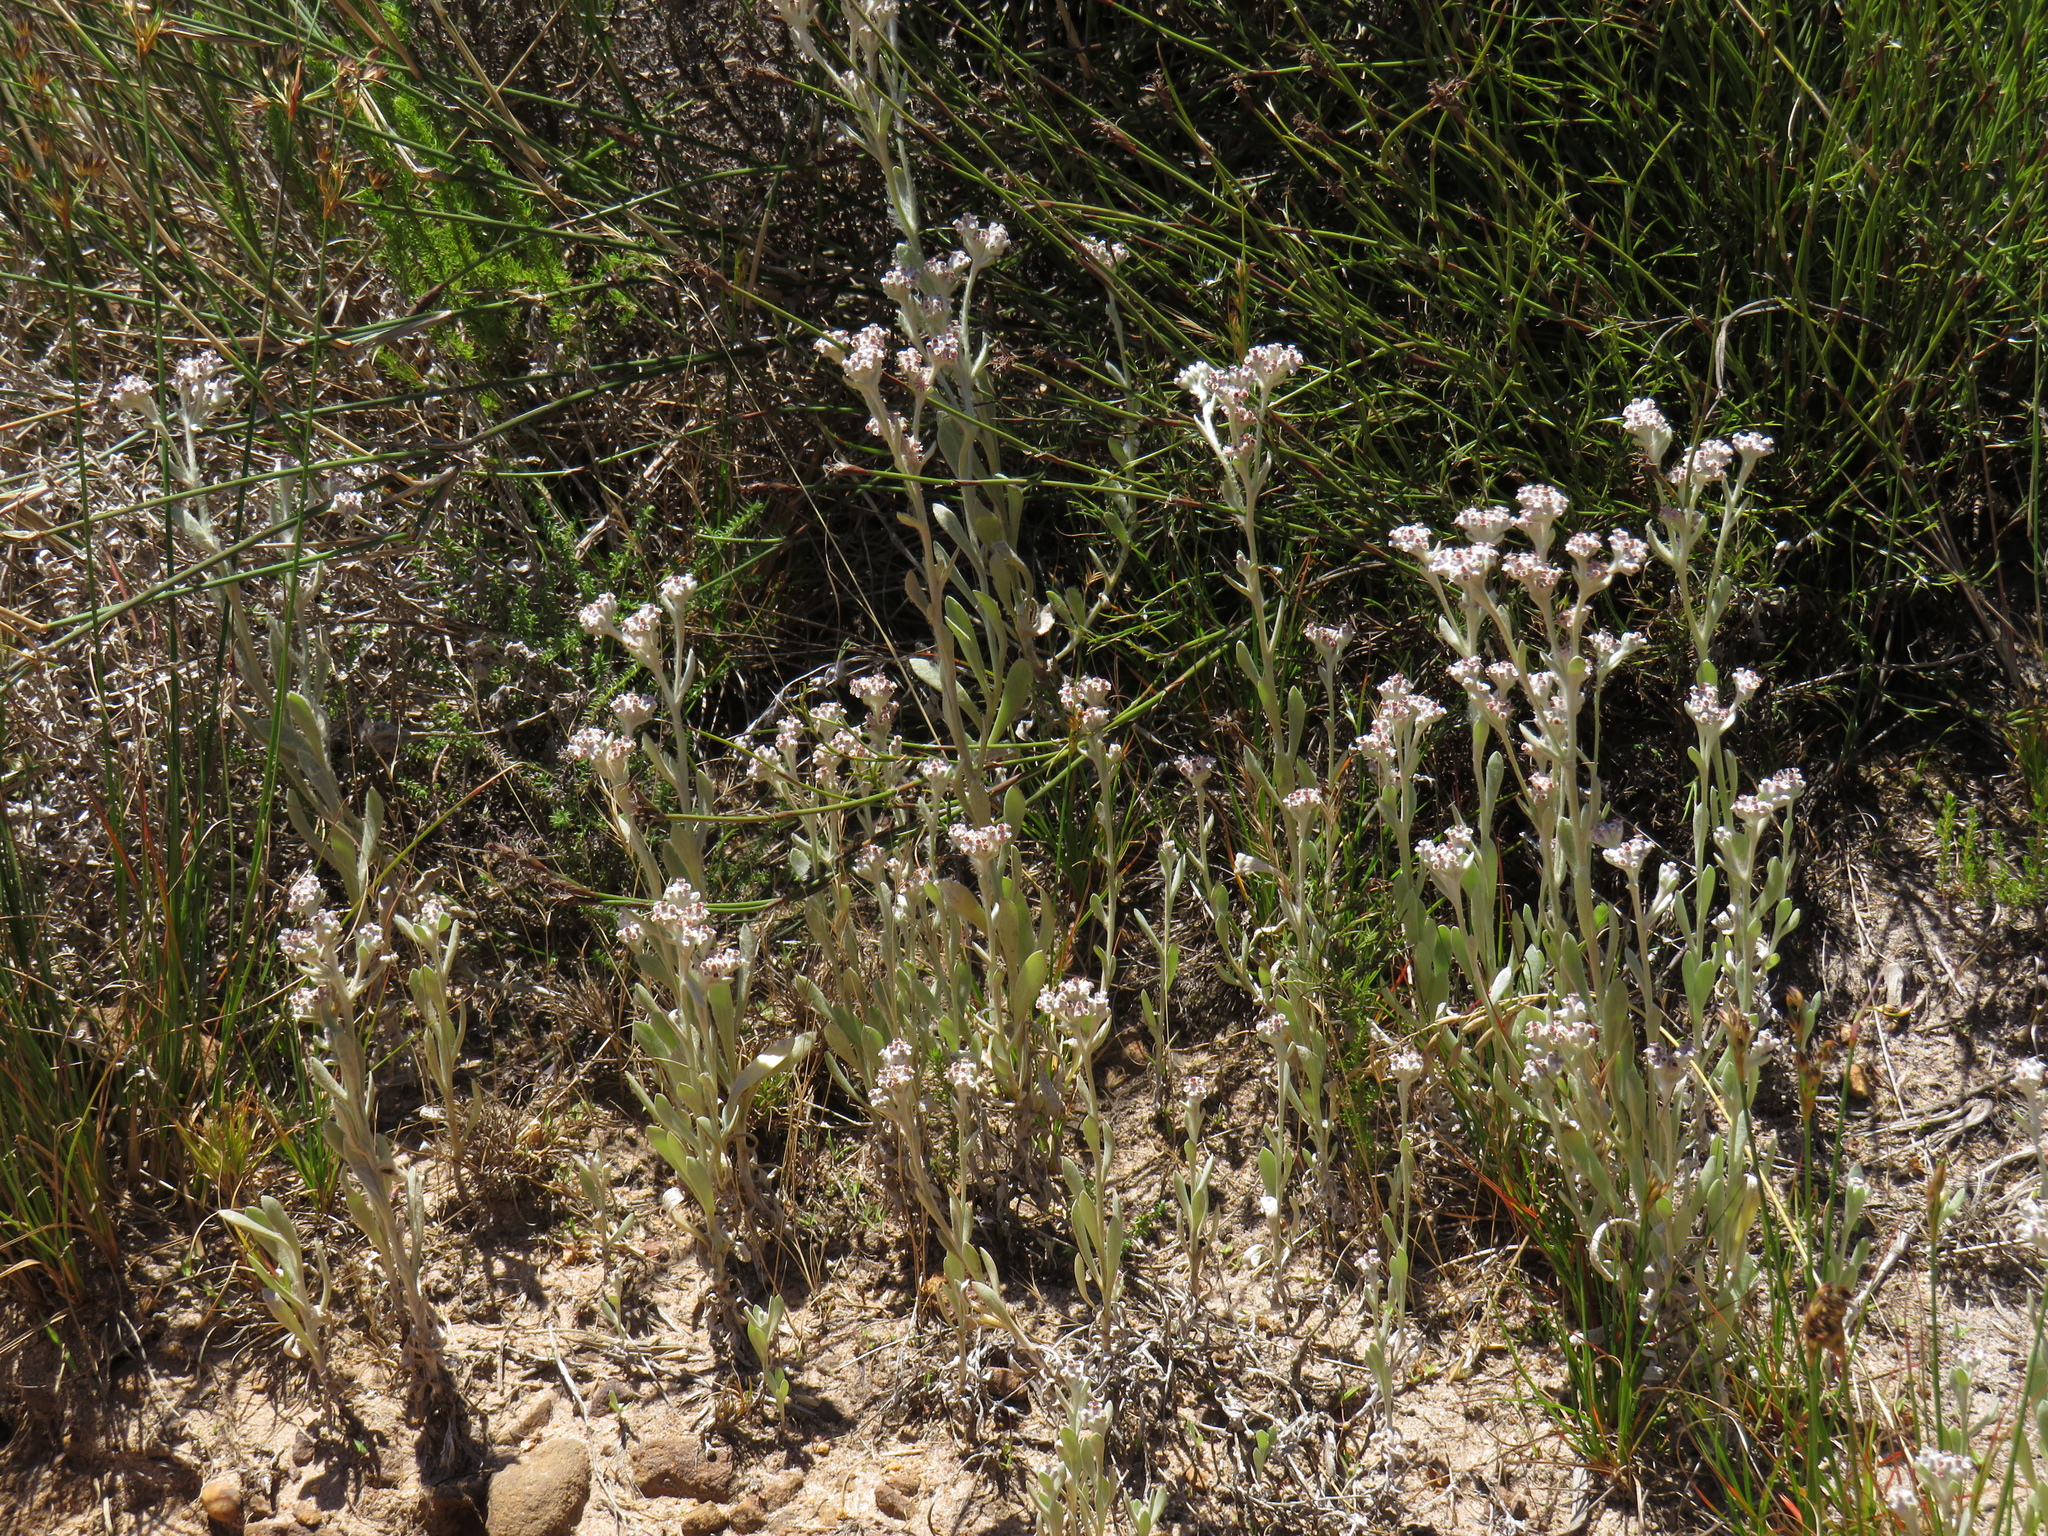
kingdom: Plantae
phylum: Tracheophyta
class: Magnoliopsida
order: Asterales
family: Asteraceae
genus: Vellereophyton
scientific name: Vellereophyton dealbatum
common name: White-cudweed
